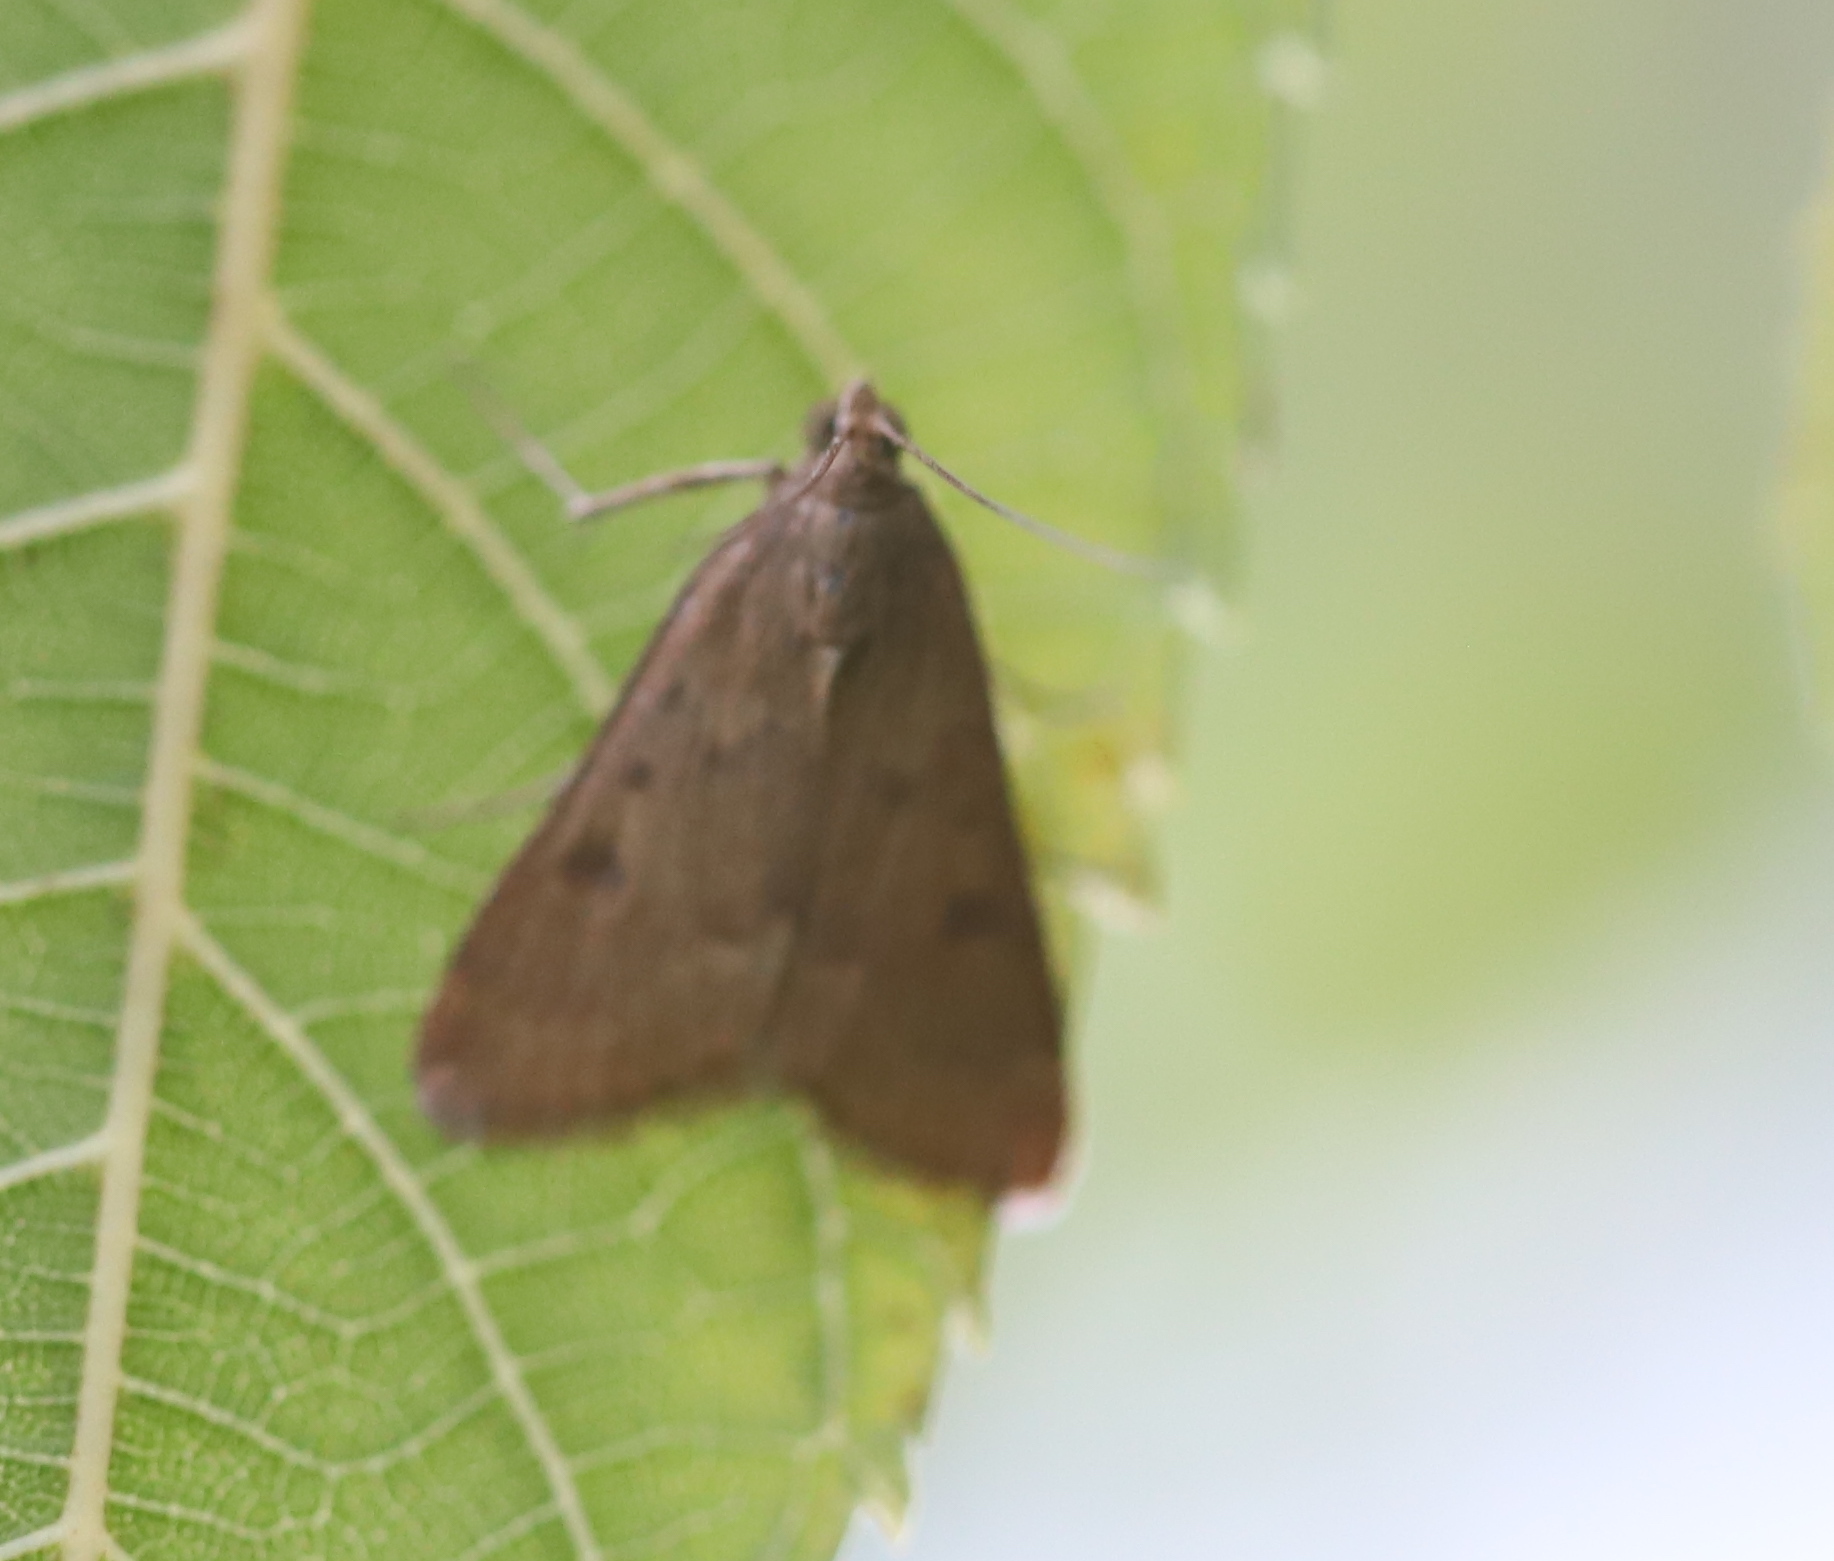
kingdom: Animalia
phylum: Arthropoda
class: Insecta
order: Lepidoptera
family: Crambidae
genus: Achyra
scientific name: Achyra rantalis
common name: Garden webworm
